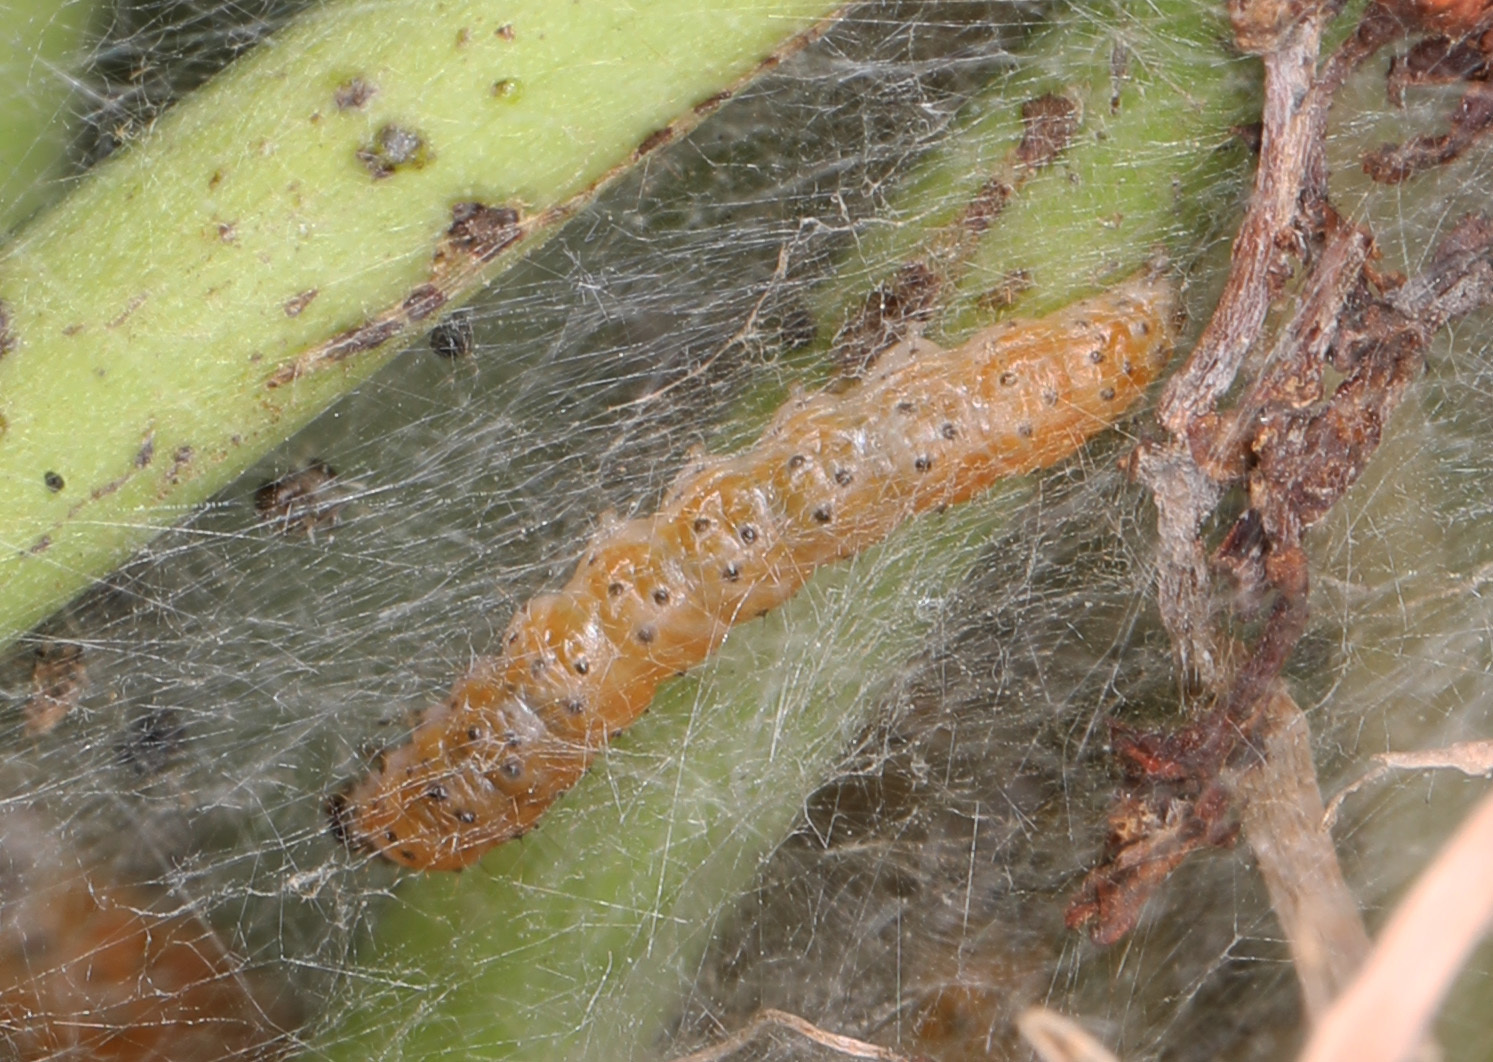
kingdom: Animalia
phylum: Arthropoda
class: Insecta
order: Lepidoptera
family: Crambidae
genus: Saucrobotys
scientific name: Saucrobotys futilalis
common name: Dogbane saucrobotys moth
